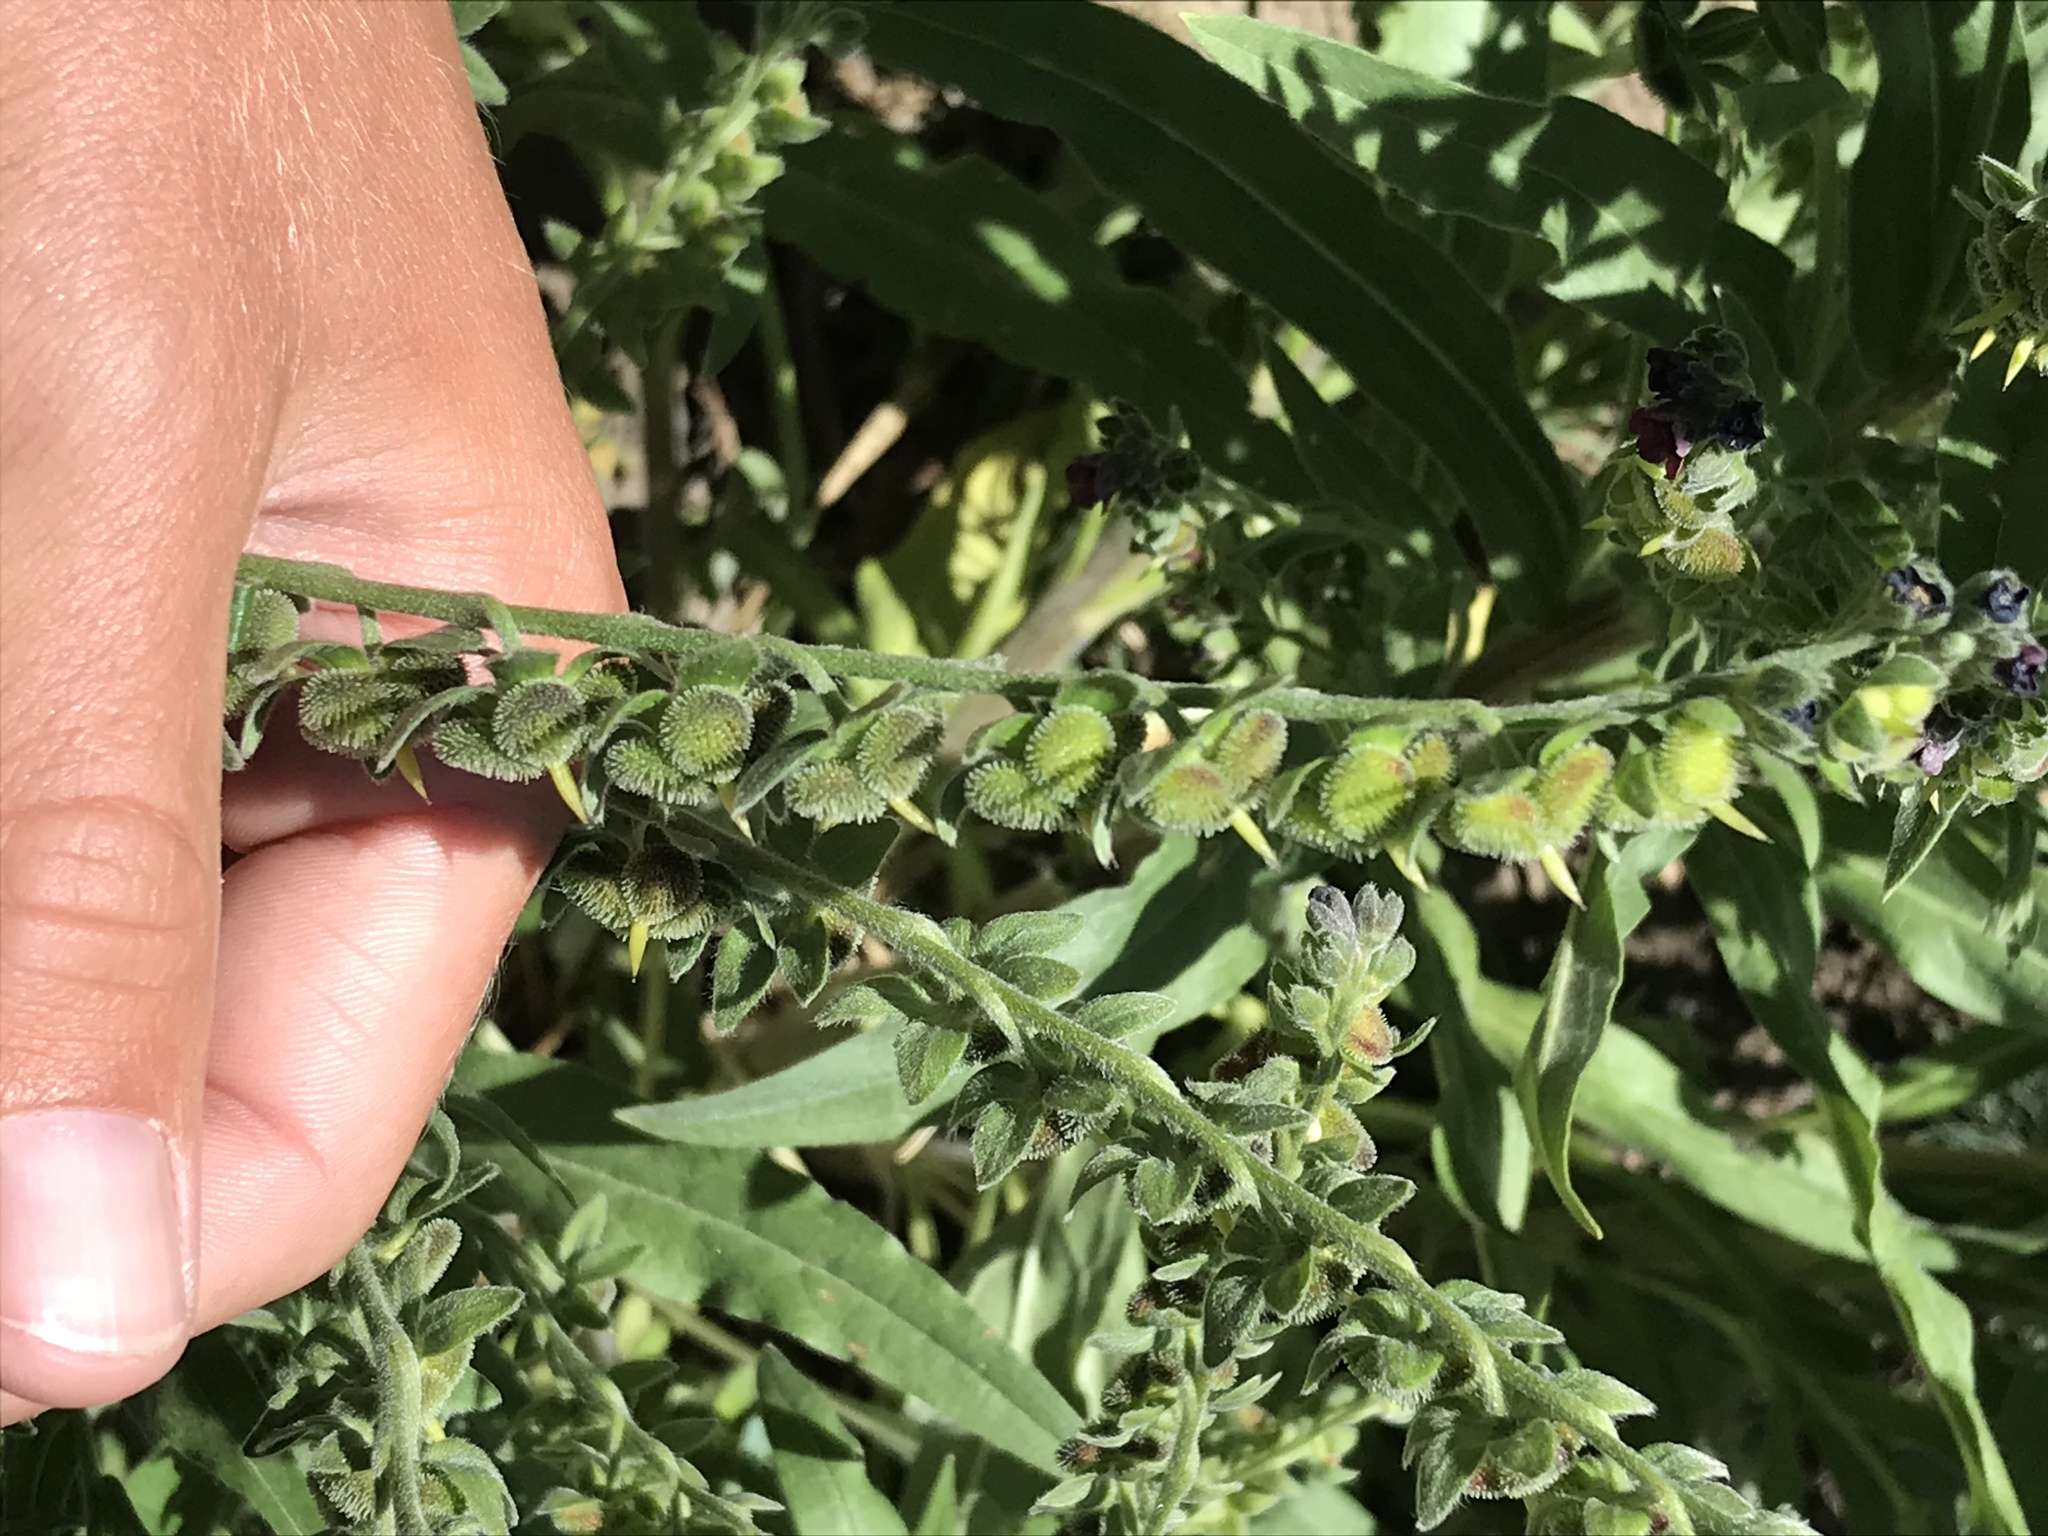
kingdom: Plantae
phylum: Tracheophyta
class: Magnoliopsida
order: Boraginales
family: Boraginaceae
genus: Cynoglossum
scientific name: Cynoglossum officinale
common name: Hound's-tongue
